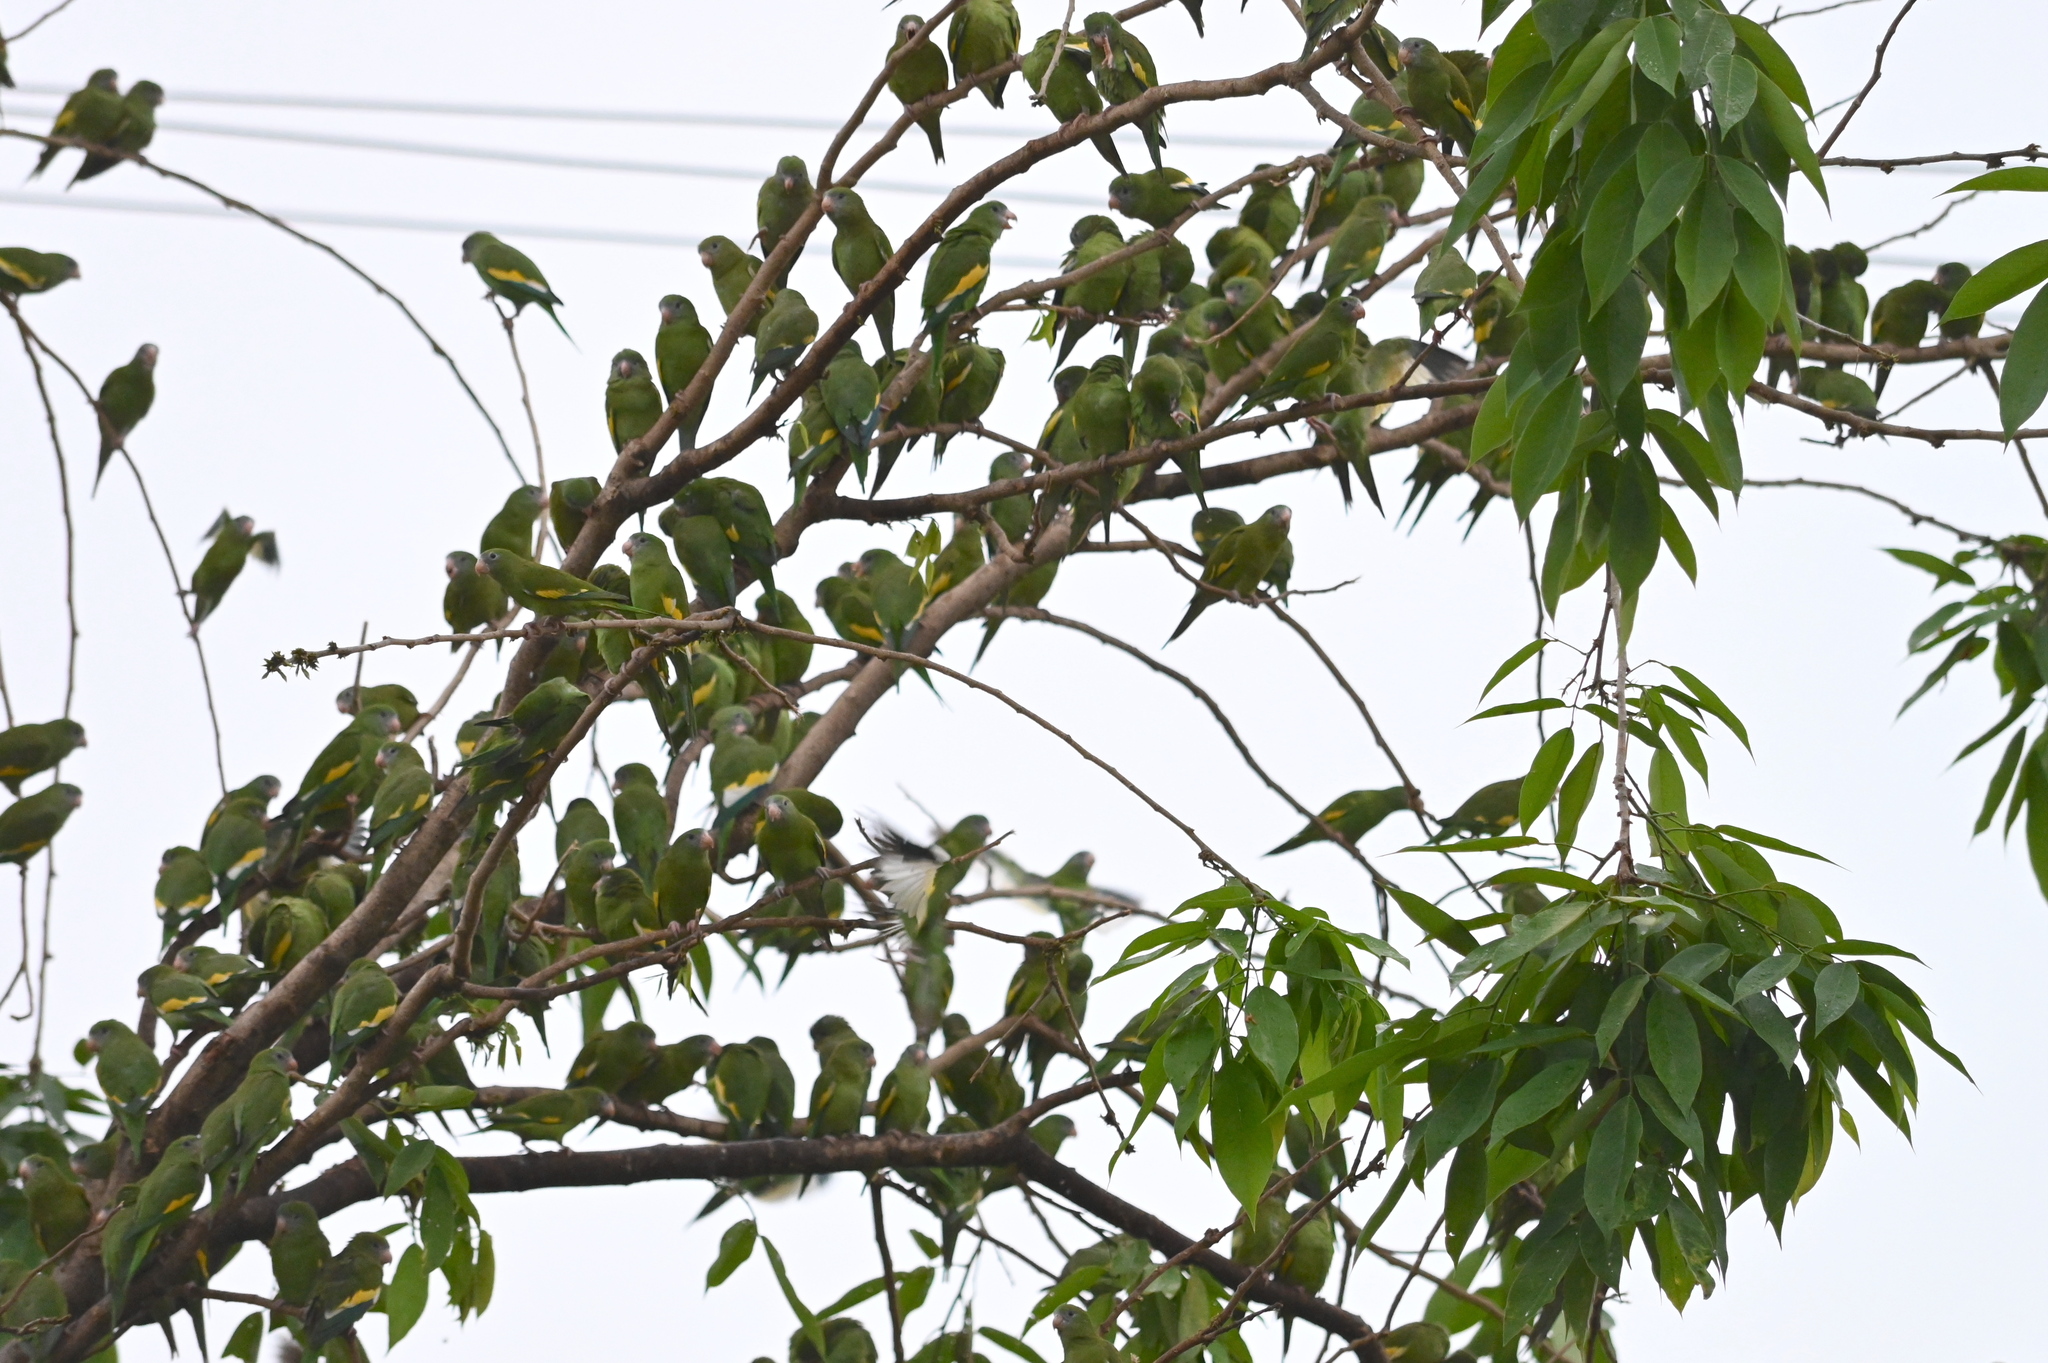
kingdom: Animalia
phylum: Chordata
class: Aves
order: Psittaciformes
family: Psittacidae
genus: Brotogeris
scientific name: Brotogeris versicolurus
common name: White-winged parakeet
